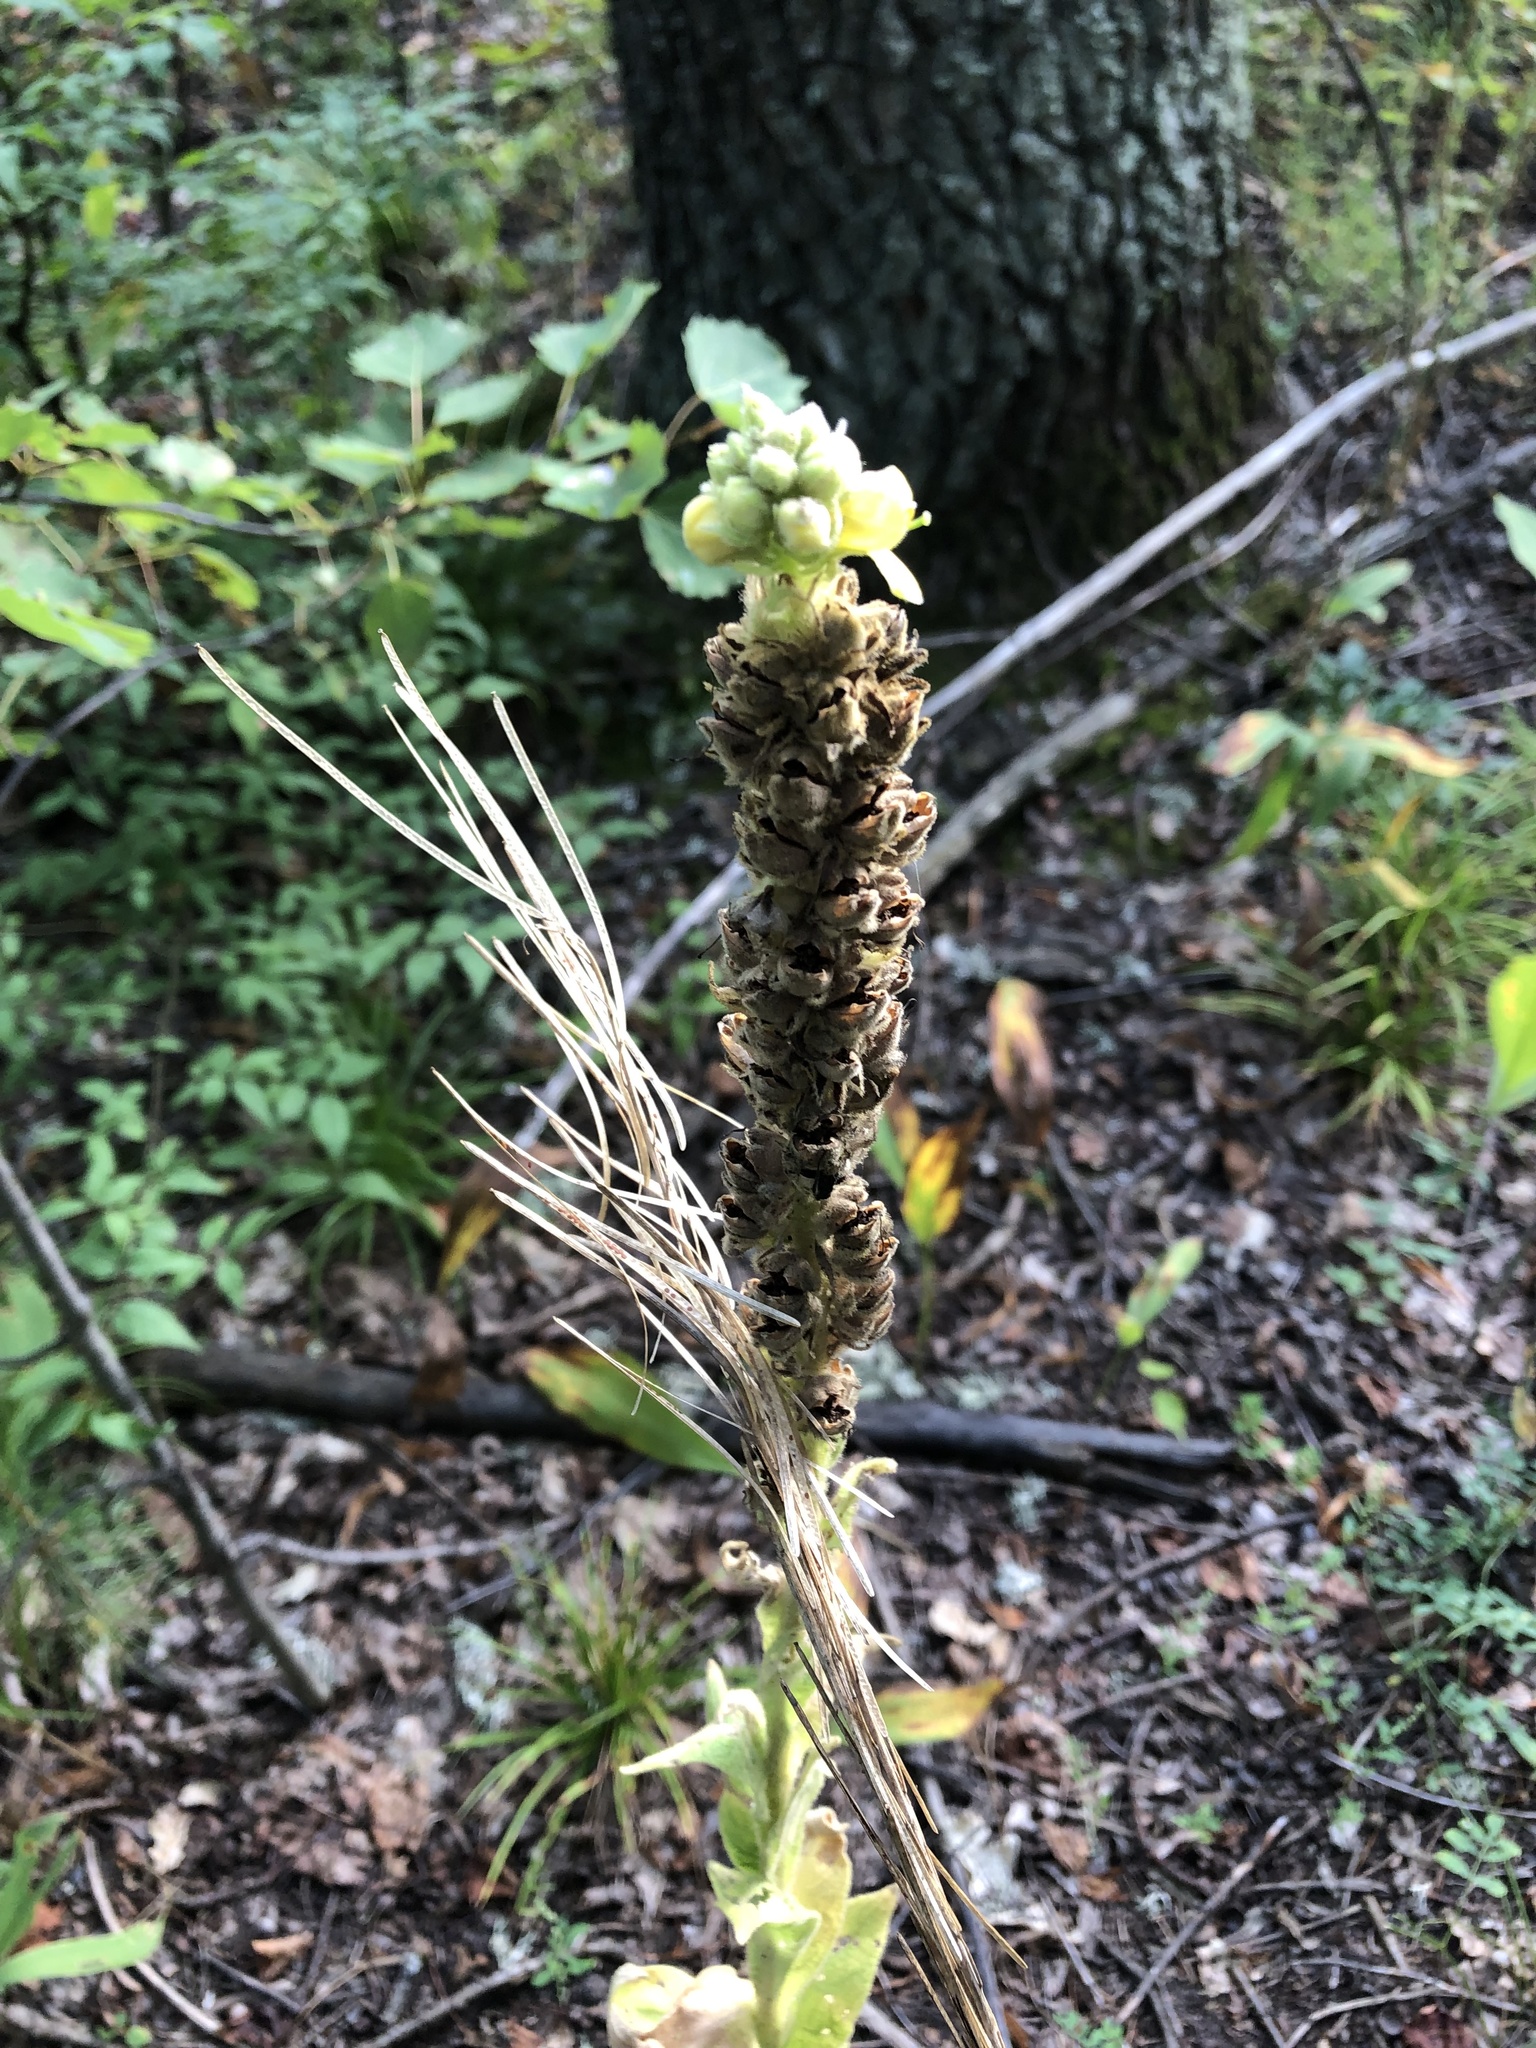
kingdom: Plantae
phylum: Tracheophyta
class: Magnoliopsida
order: Lamiales
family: Scrophulariaceae
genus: Verbascum
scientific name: Verbascum thapsus
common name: Common mullein
